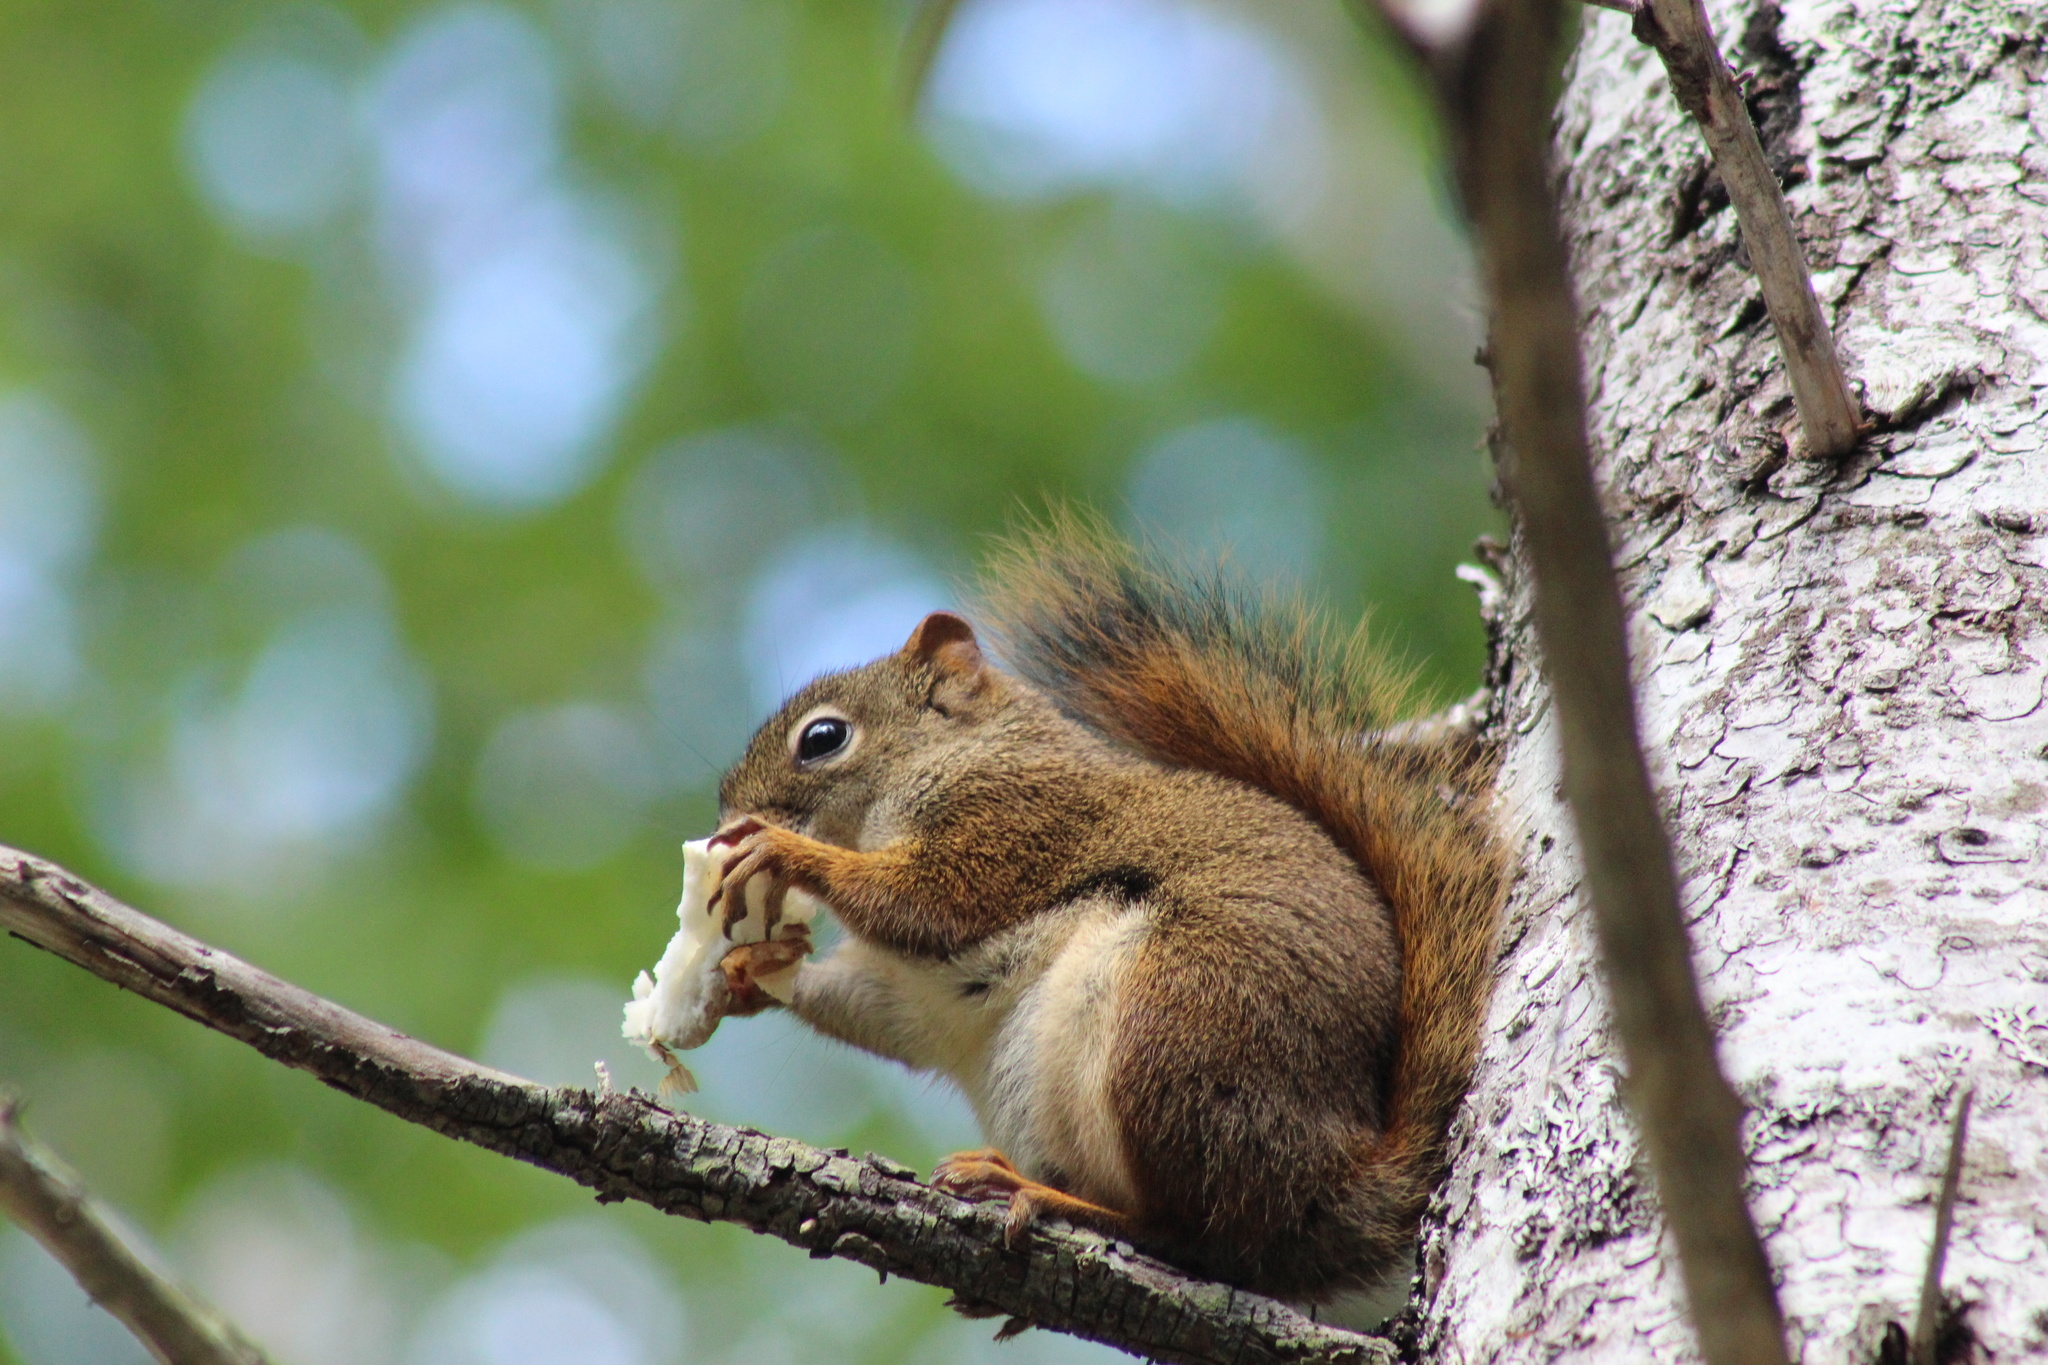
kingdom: Animalia
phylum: Chordata
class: Mammalia
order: Rodentia
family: Sciuridae
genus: Tamiasciurus
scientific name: Tamiasciurus hudsonicus
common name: Red squirrel
